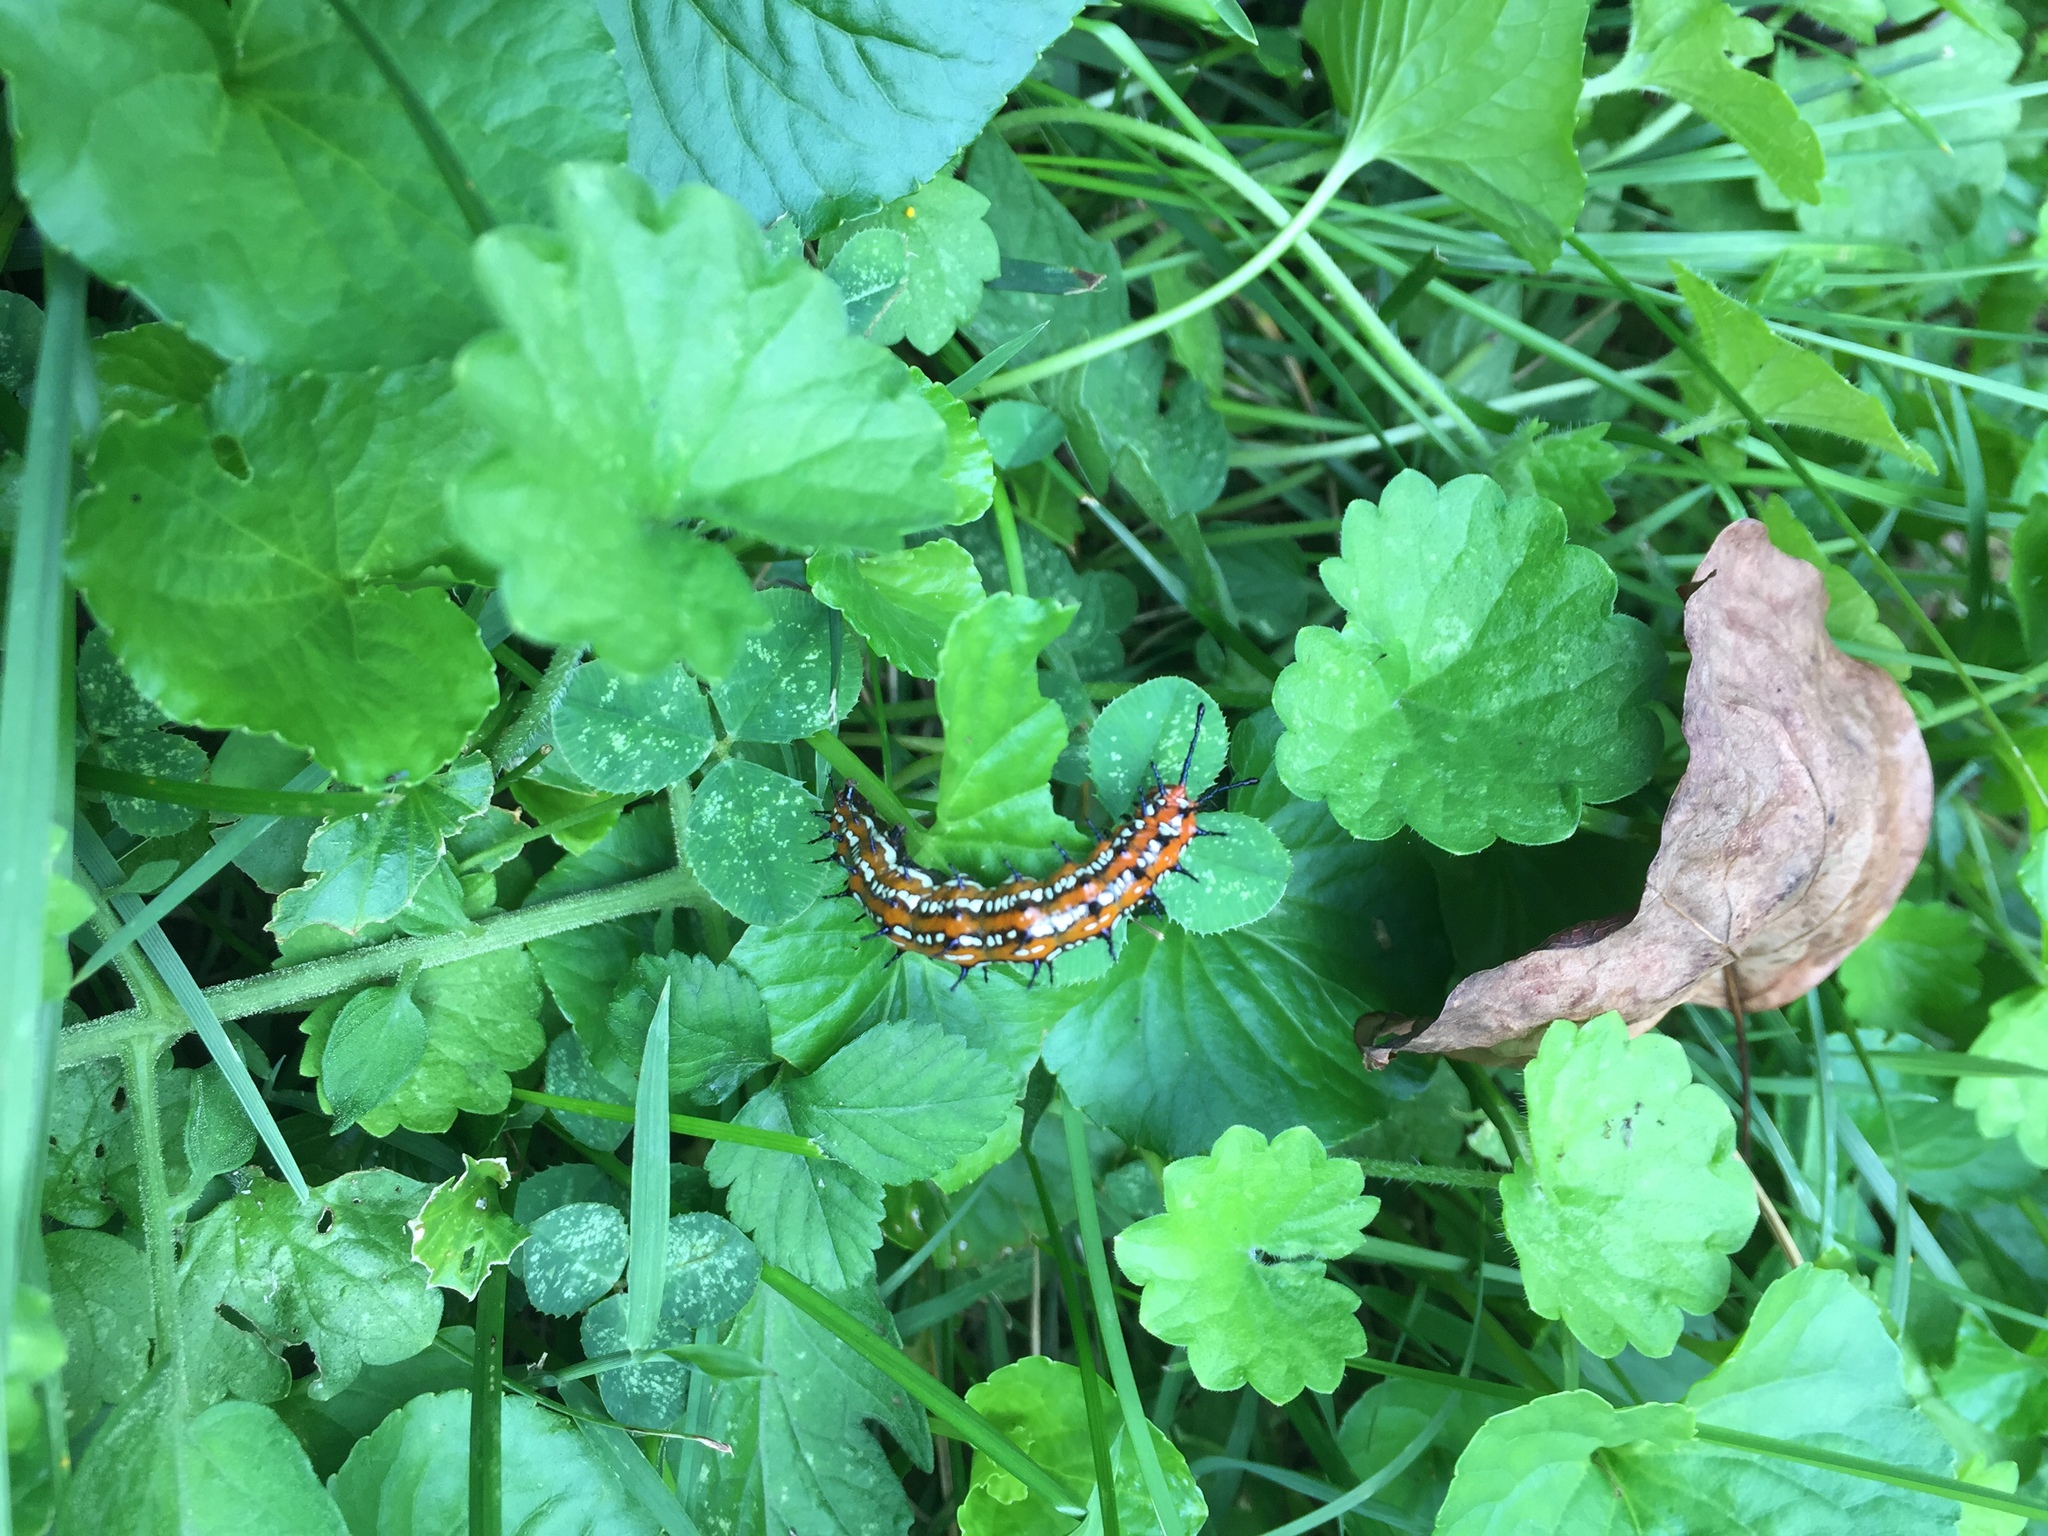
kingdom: Animalia
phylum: Arthropoda
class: Insecta
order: Lepidoptera
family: Nymphalidae
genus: Euptoieta
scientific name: Euptoieta claudia
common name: Variegated fritillary
